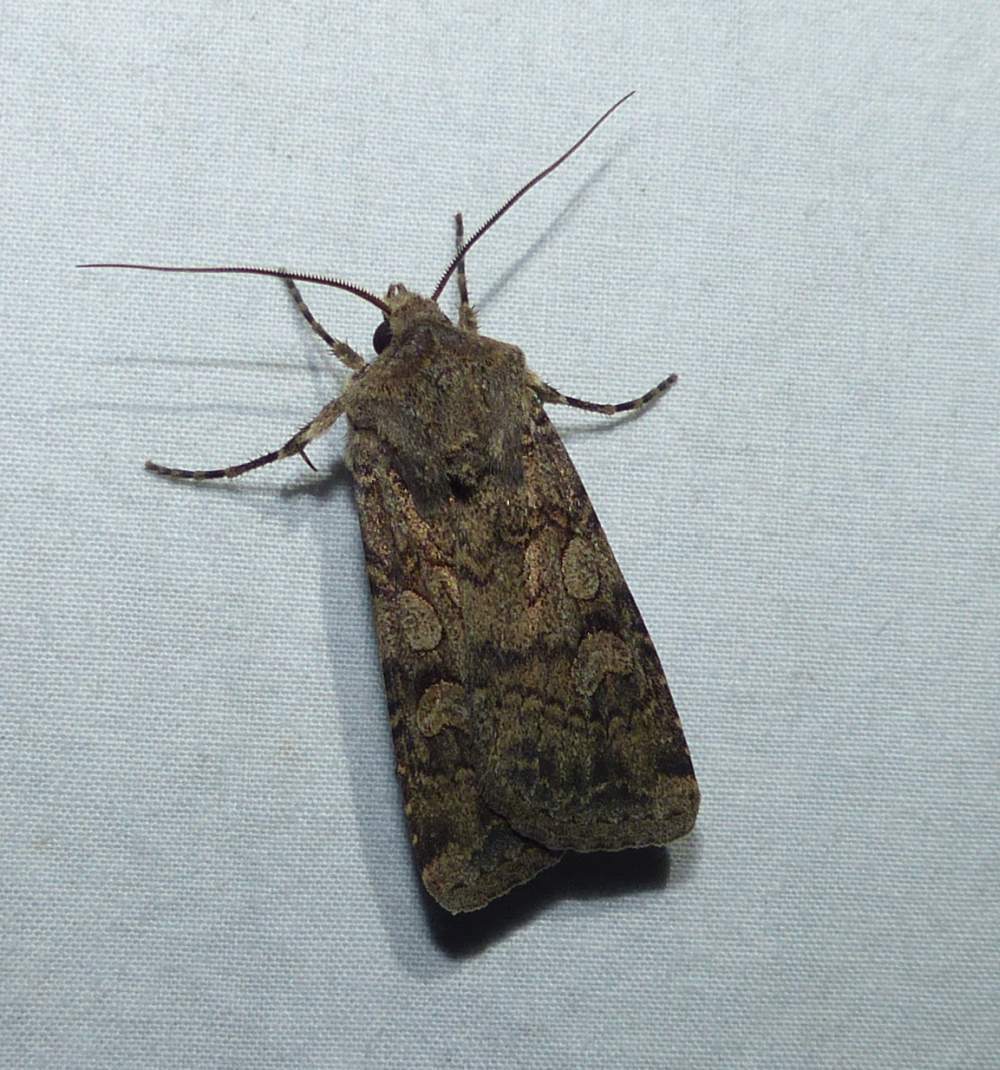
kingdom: Animalia
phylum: Arthropoda
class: Insecta
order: Lepidoptera
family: Noctuidae
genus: Euxoa
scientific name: Euxoa messoria
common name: Darksided cutworm
